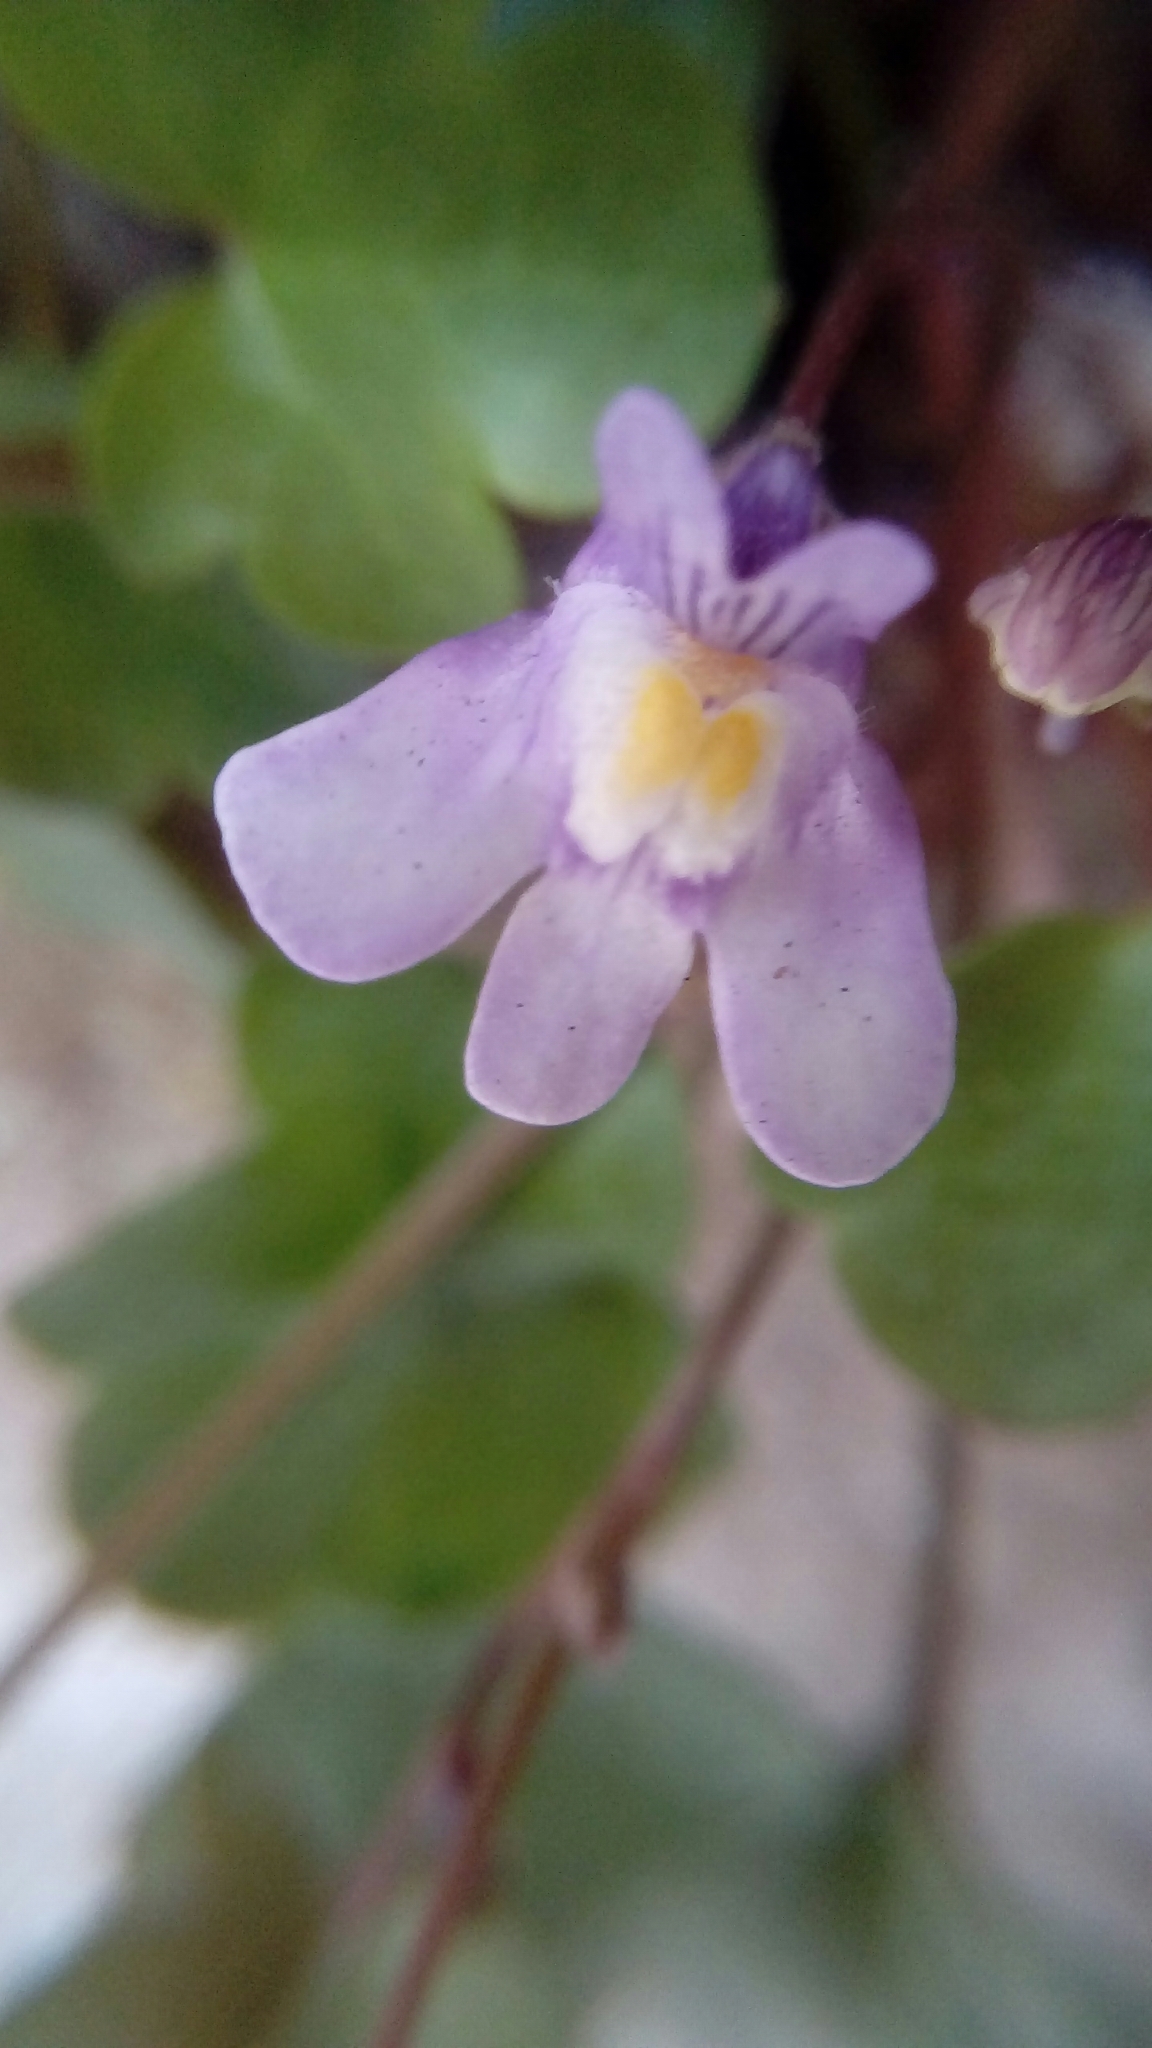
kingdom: Plantae
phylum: Tracheophyta
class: Magnoliopsida
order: Lamiales
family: Plantaginaceae
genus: Cymbalaria
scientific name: Cymbalaria muralis
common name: Ivy-leaved toadflax
